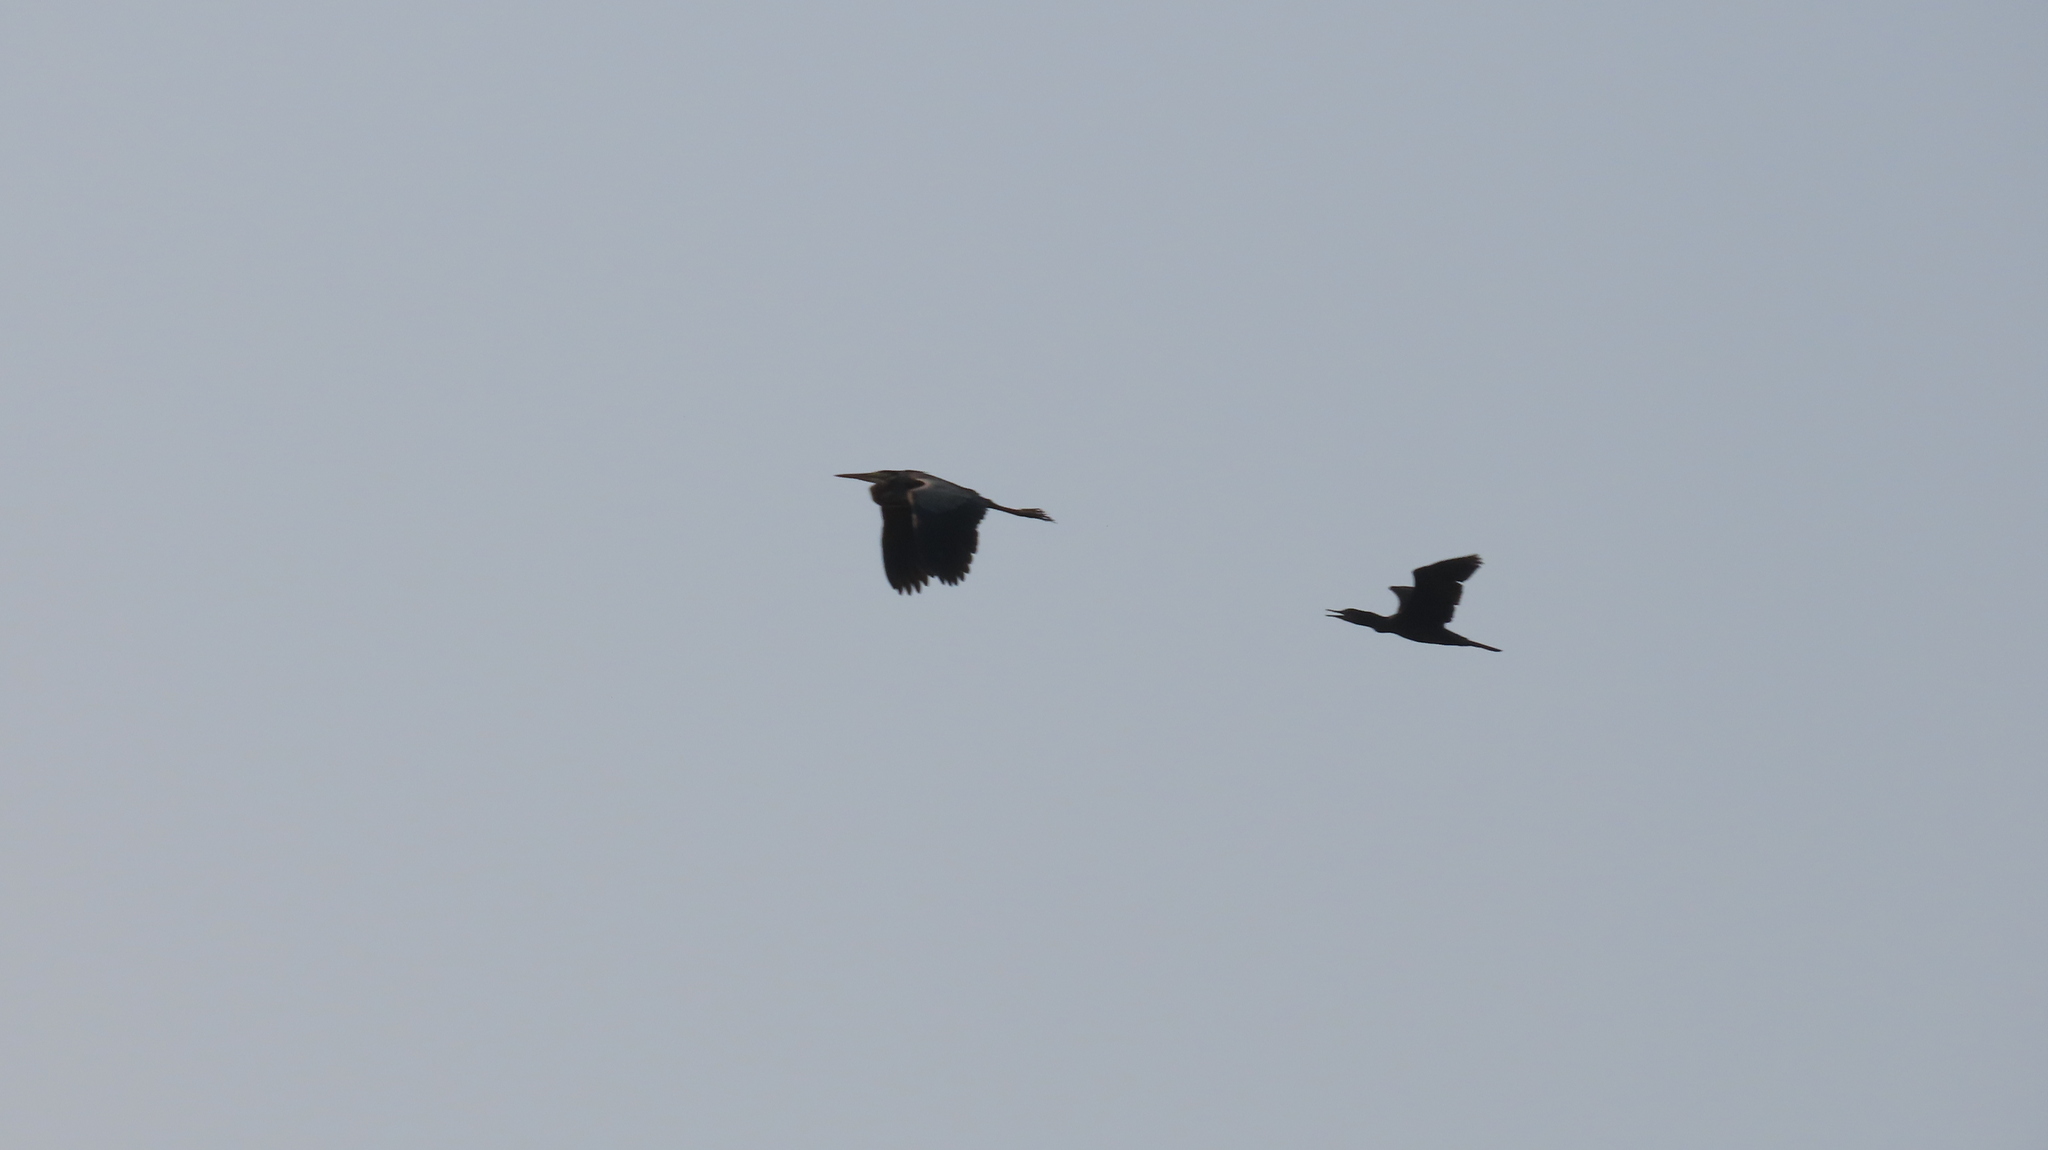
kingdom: Animalia
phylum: Chordata
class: Aves
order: Suliformes
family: Phalacrocoracidae
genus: Phalacrocorax
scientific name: Phalacrocorax fuscicollis
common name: Indian cormorant
